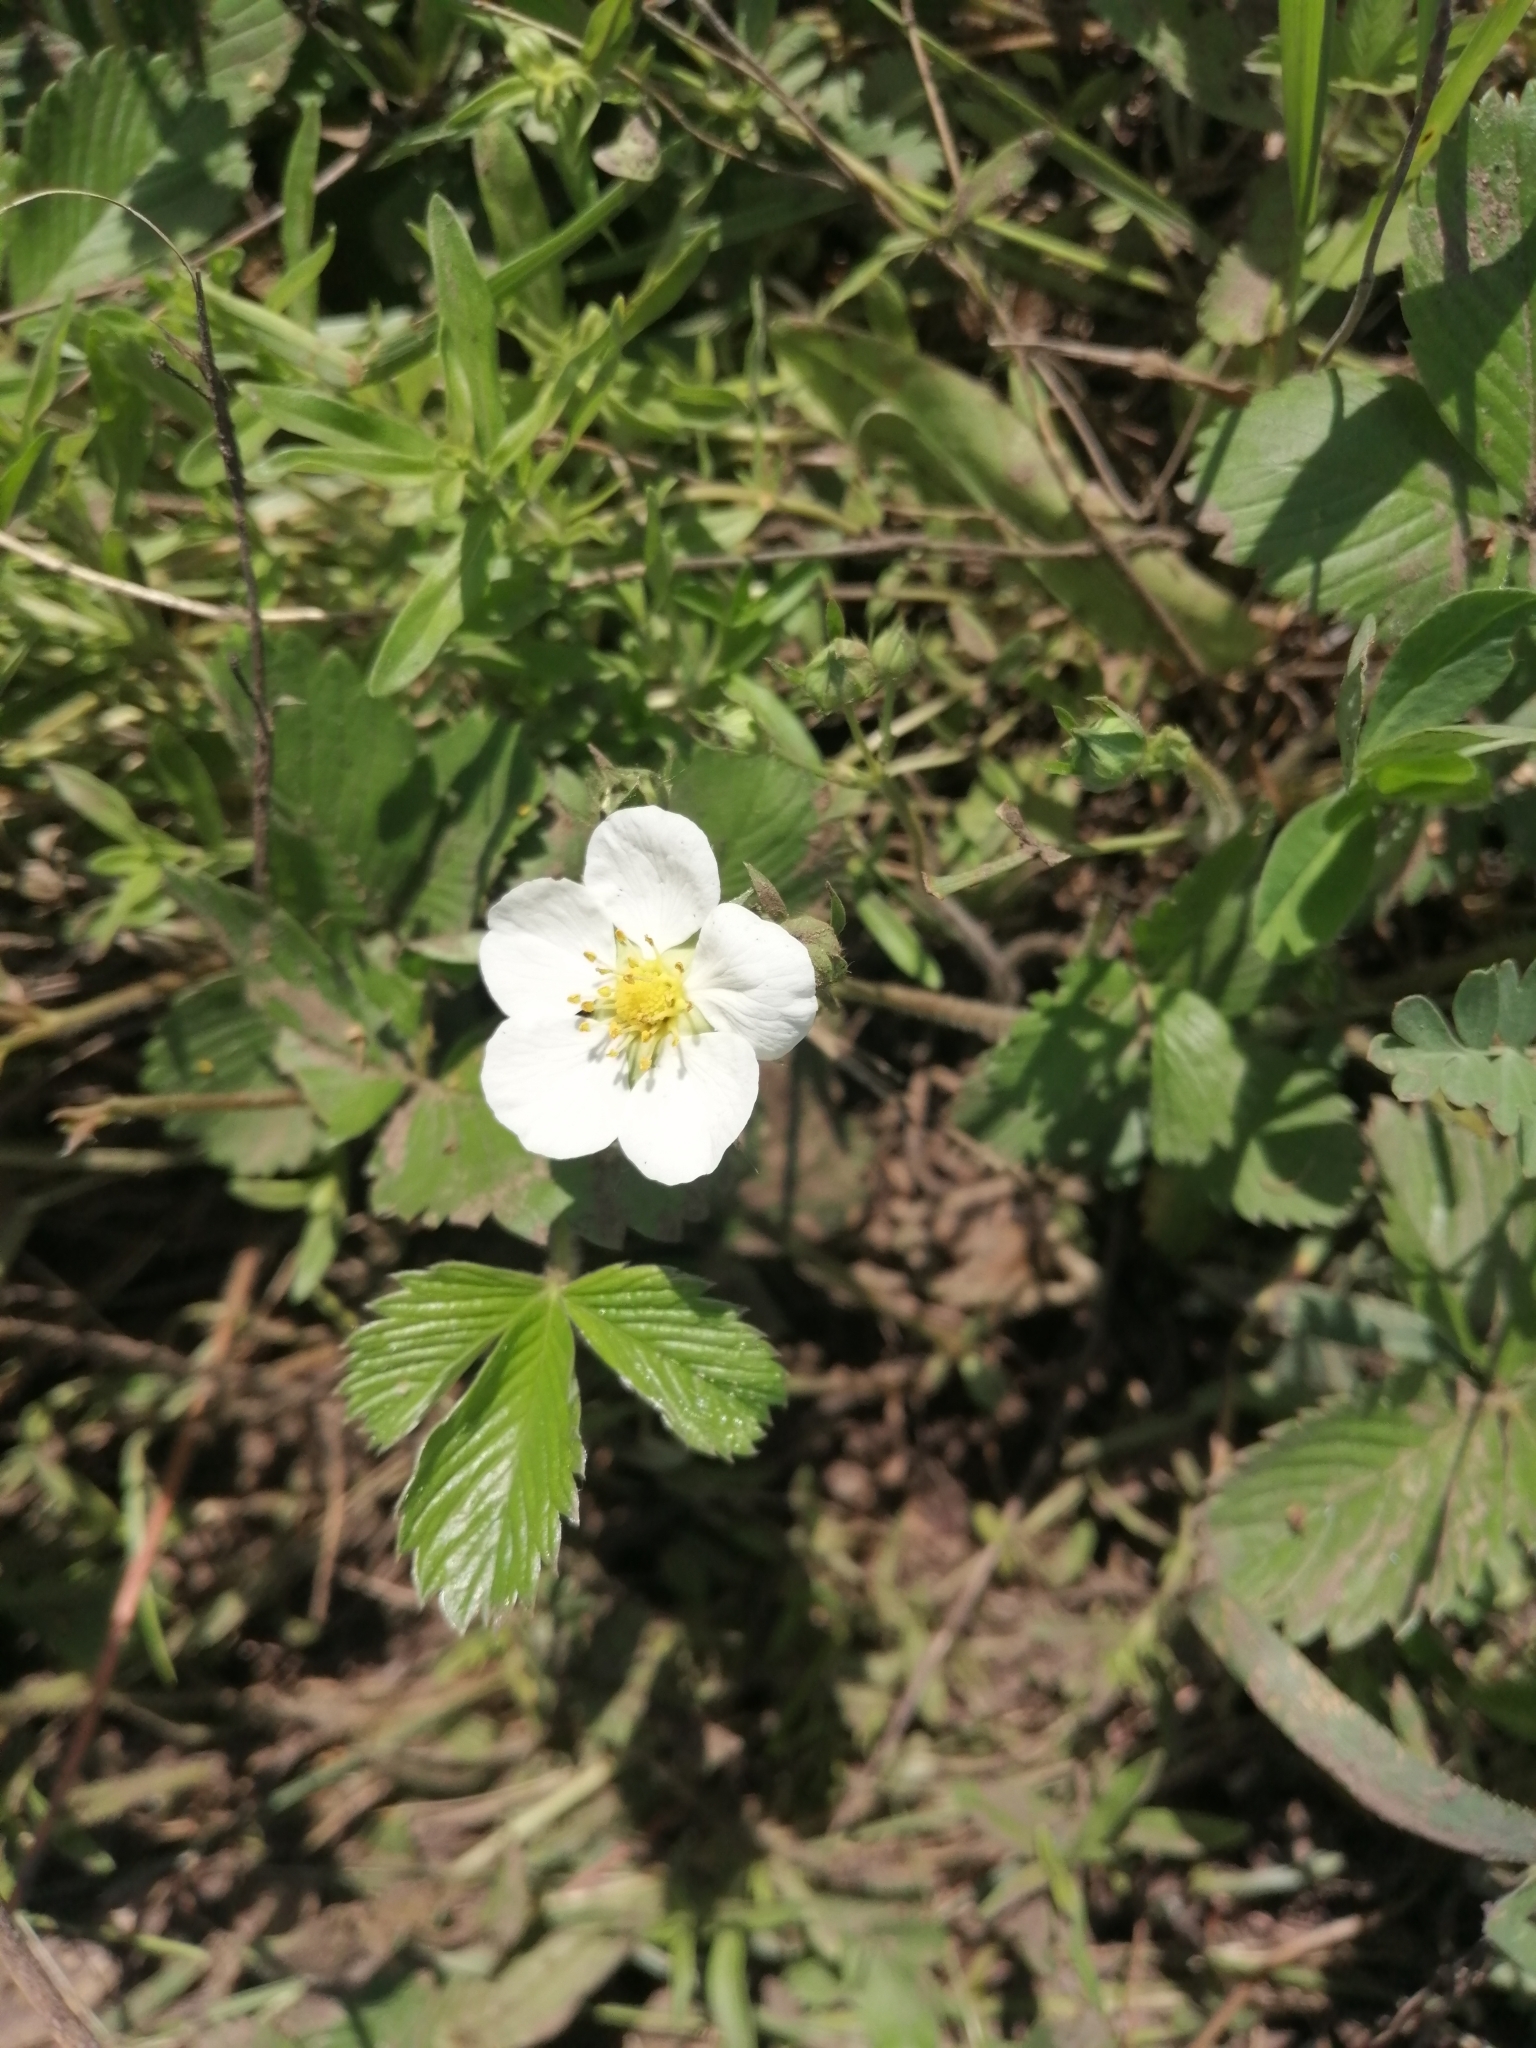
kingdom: Plantae
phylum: Tracheophyta
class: Magnoliopsida
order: Rosales
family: Rosaceae
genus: Fragaria
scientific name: Fragaria viridis
